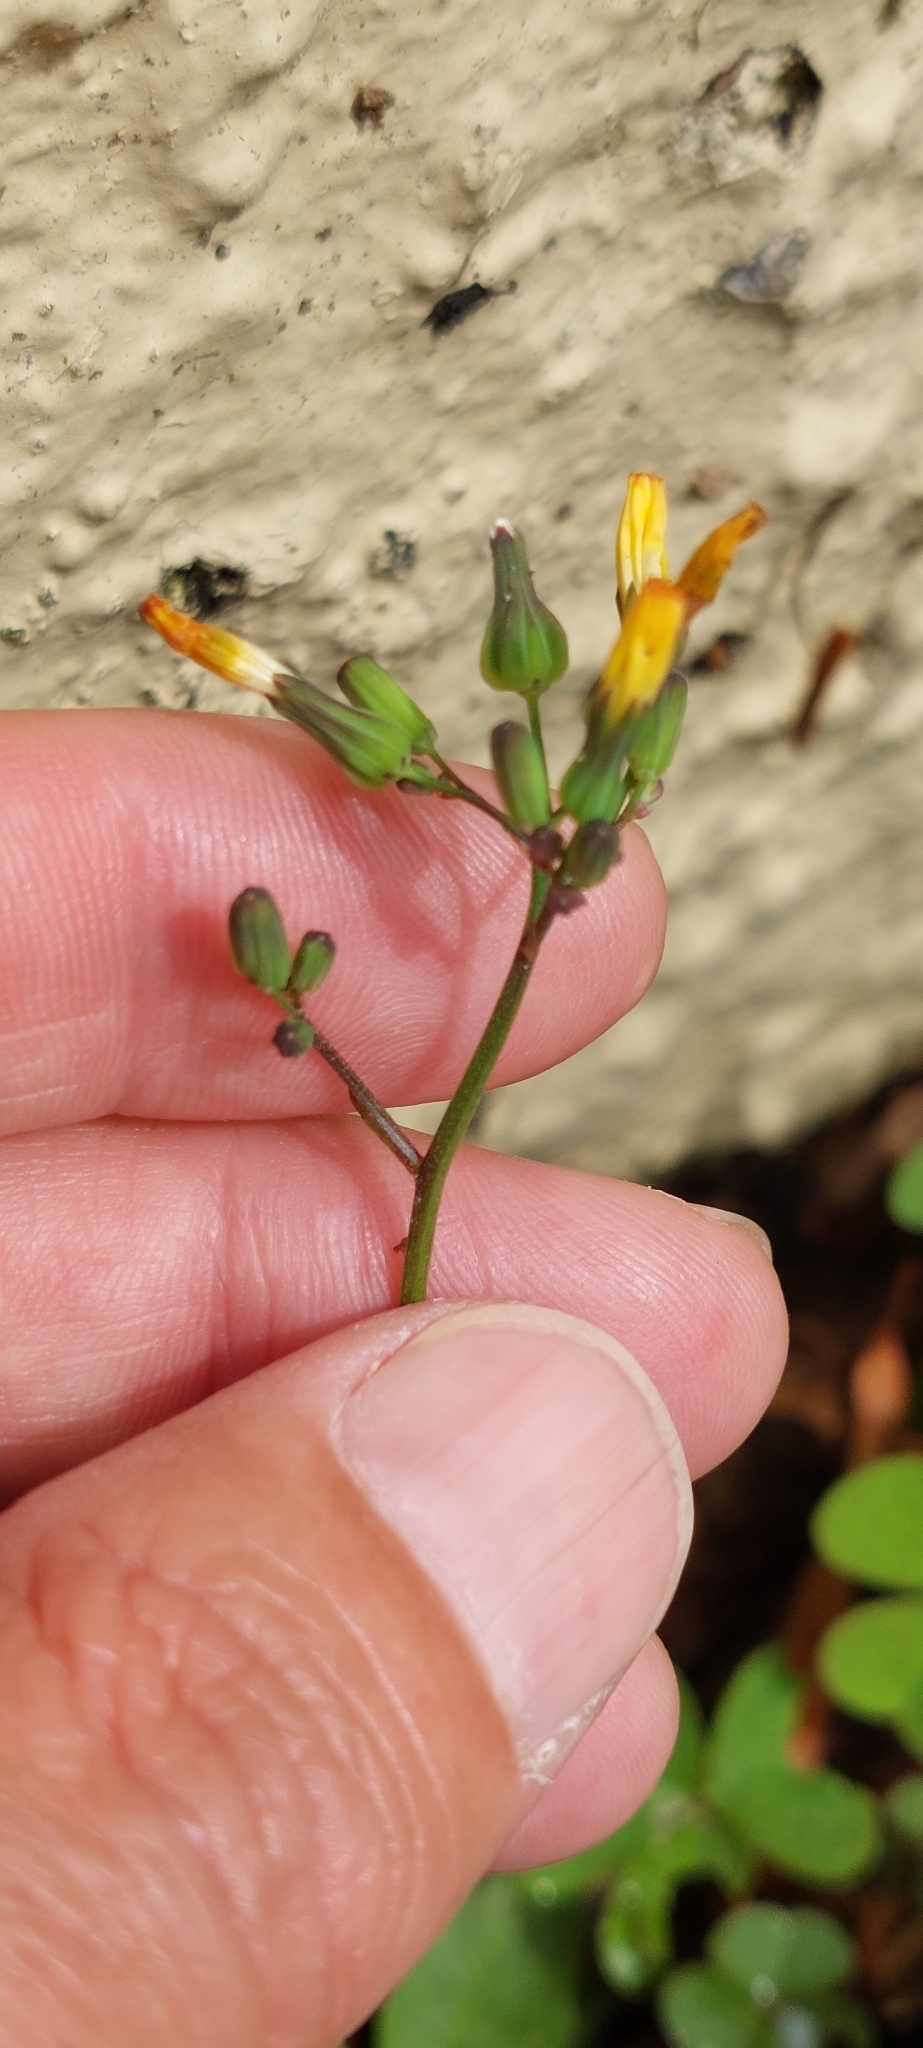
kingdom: Plantae
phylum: Tracheophyta
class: Magnoliopsida
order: Asterales
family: Asteraceae
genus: Youngia
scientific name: Youngia japonica
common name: Oriental false hawksbeard
